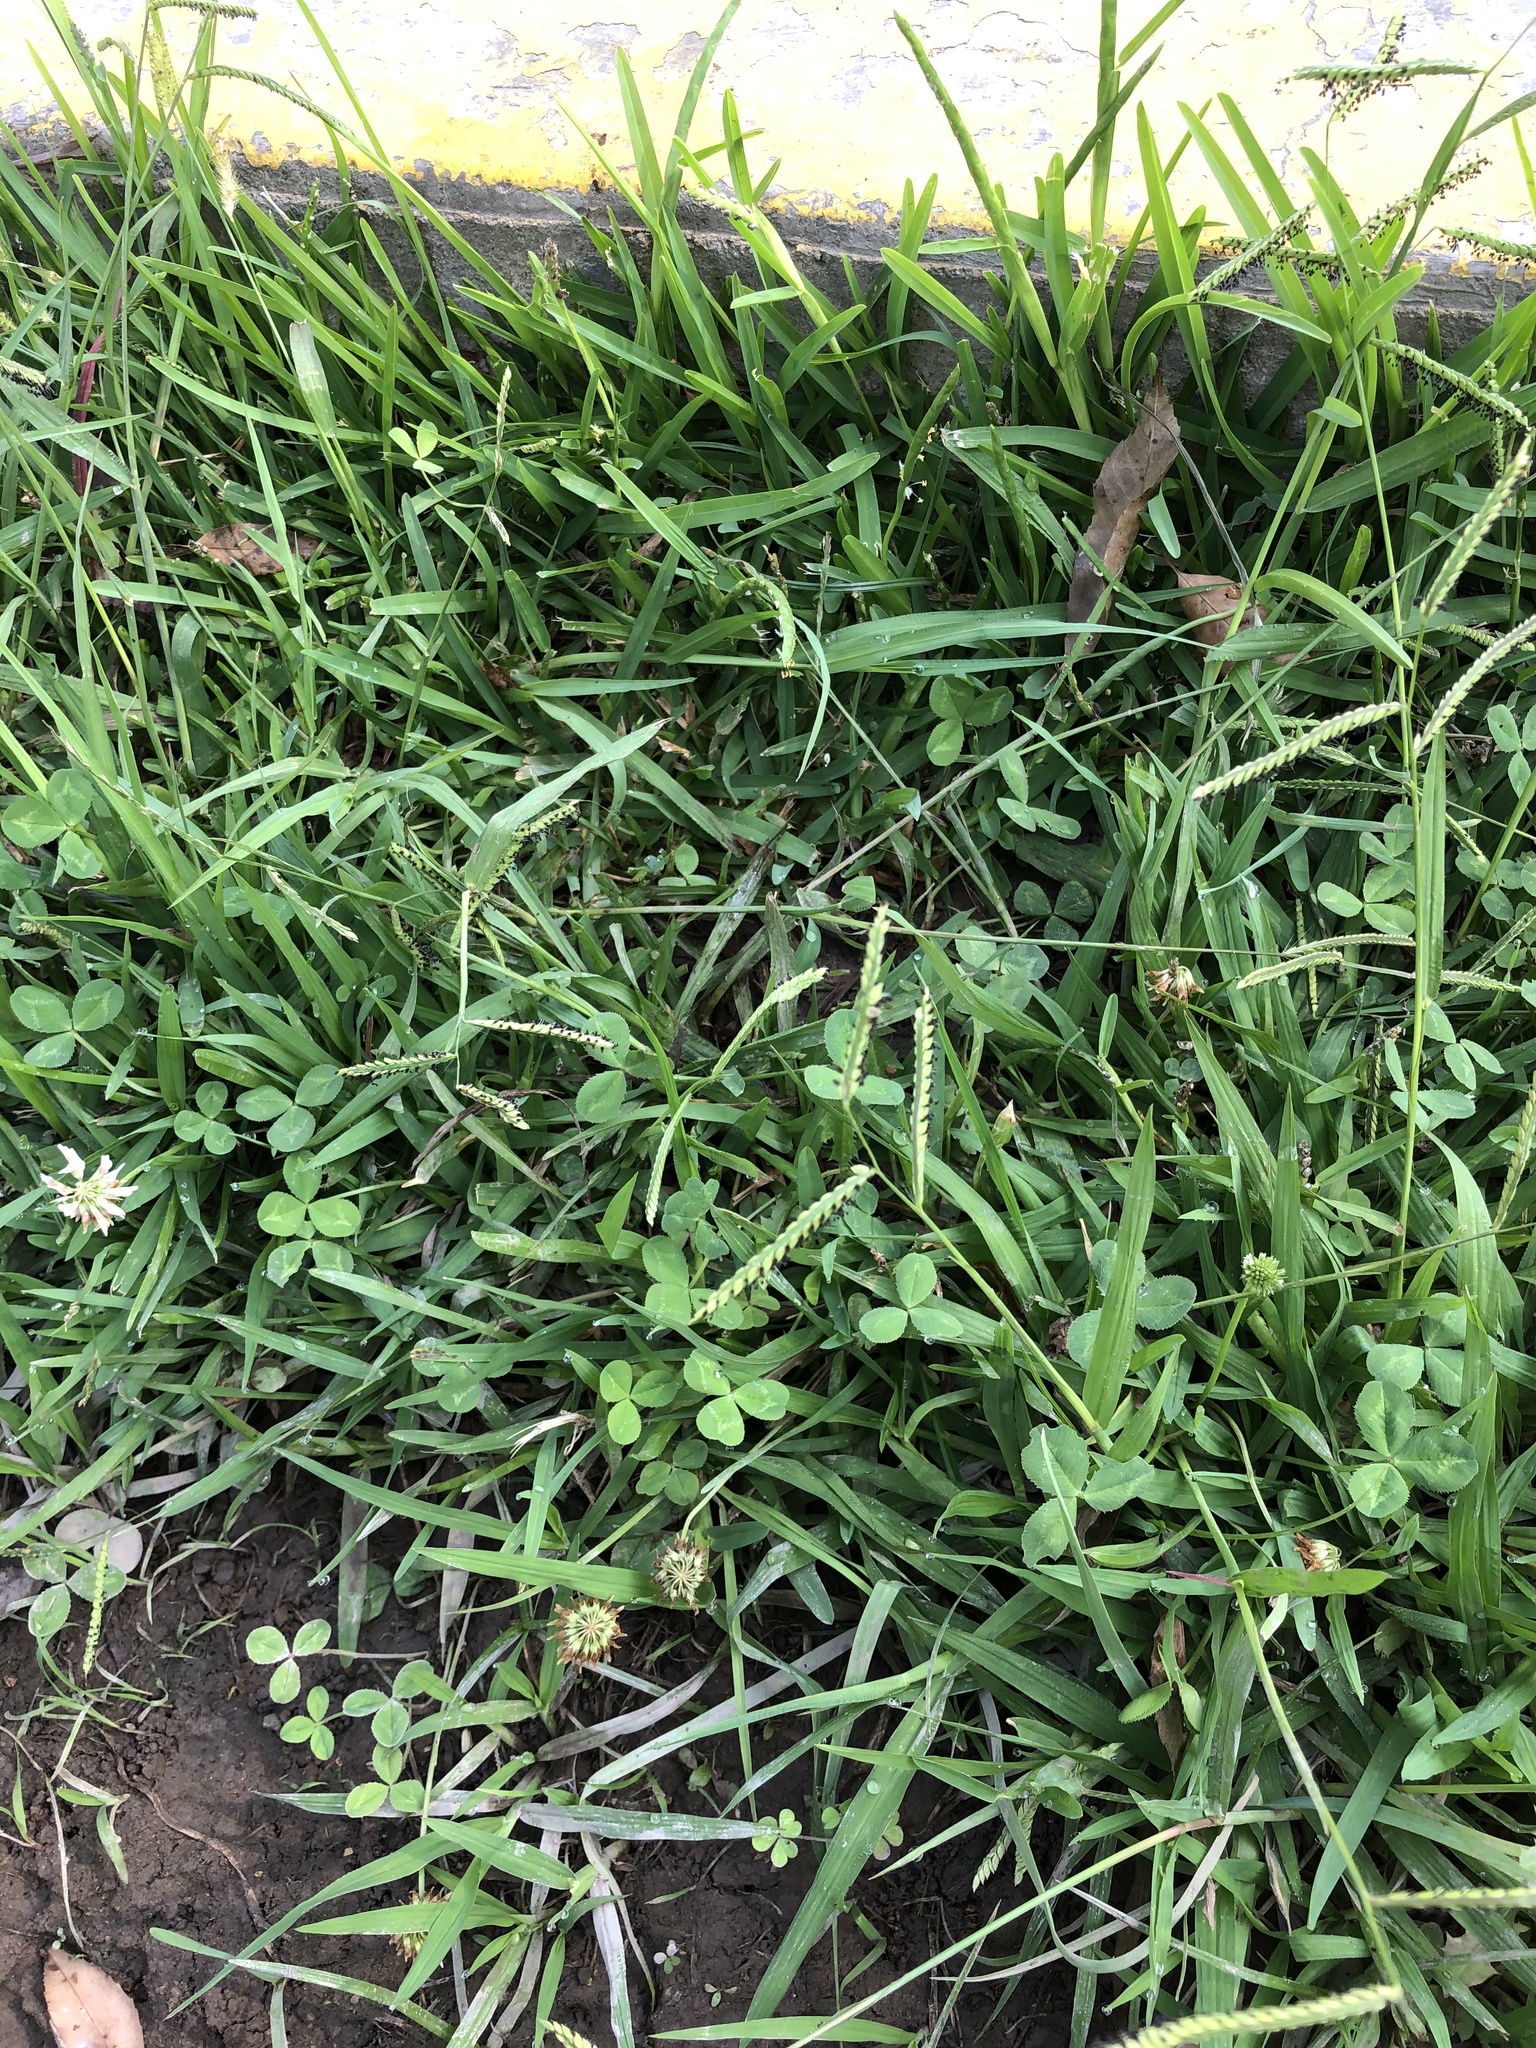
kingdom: Plantae
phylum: Tracheophyta
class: Liliopsida
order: Poales
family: Poaceae
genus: Paspalum
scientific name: Paspalum dilatatum
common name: Dallisgrass
